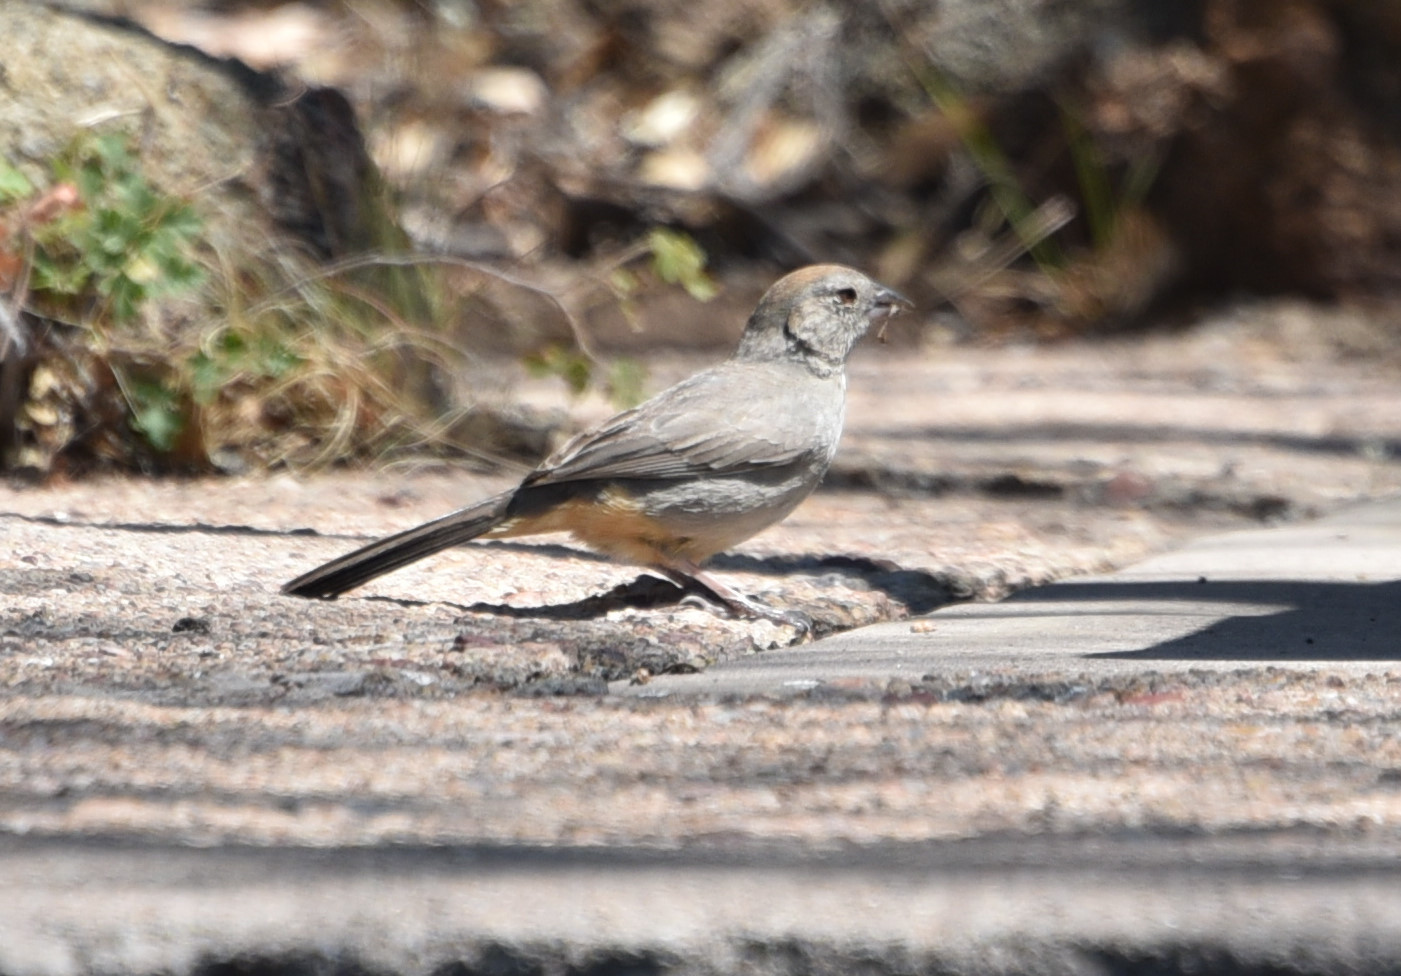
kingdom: Animalia
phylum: Chordata
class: Aves
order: Passeriformes
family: Passerellidae
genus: Melozone
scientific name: Melozone fusca
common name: Canyon towhee
